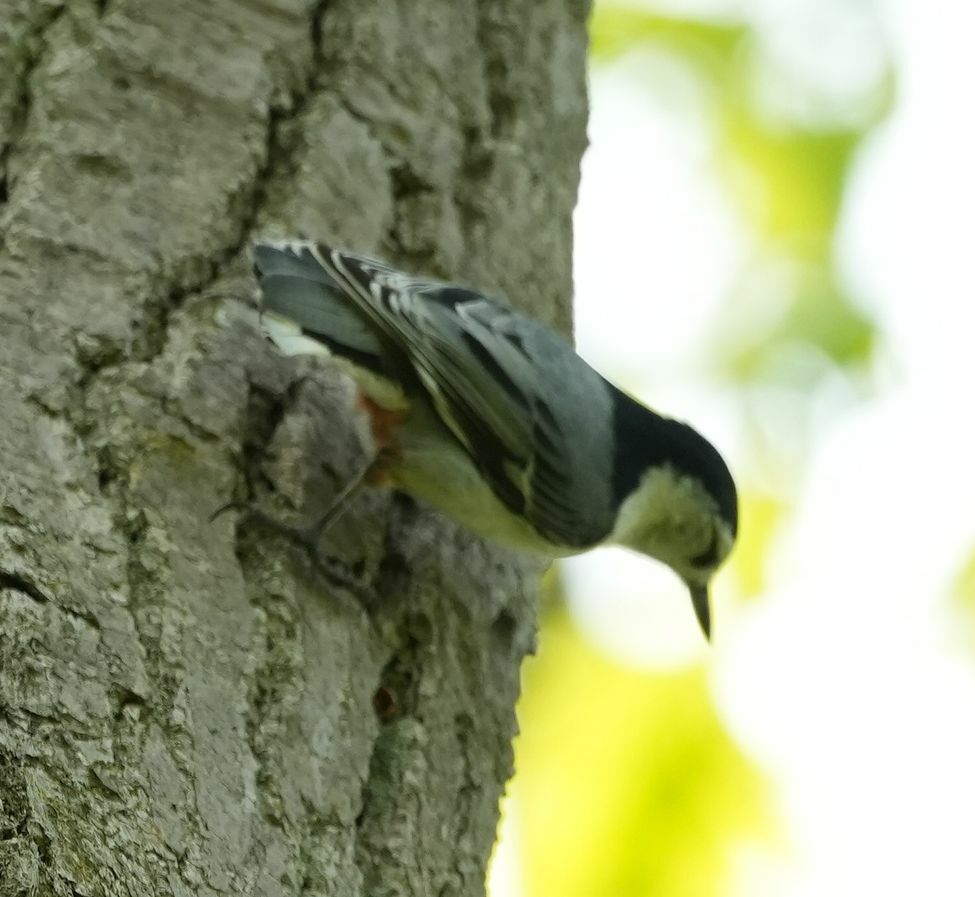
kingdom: Animalia
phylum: Chordata
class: Aves
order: Passeriformes
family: Sittidae
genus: Sitta
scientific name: Sitta carolinensis
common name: White-breasted nuthatch
